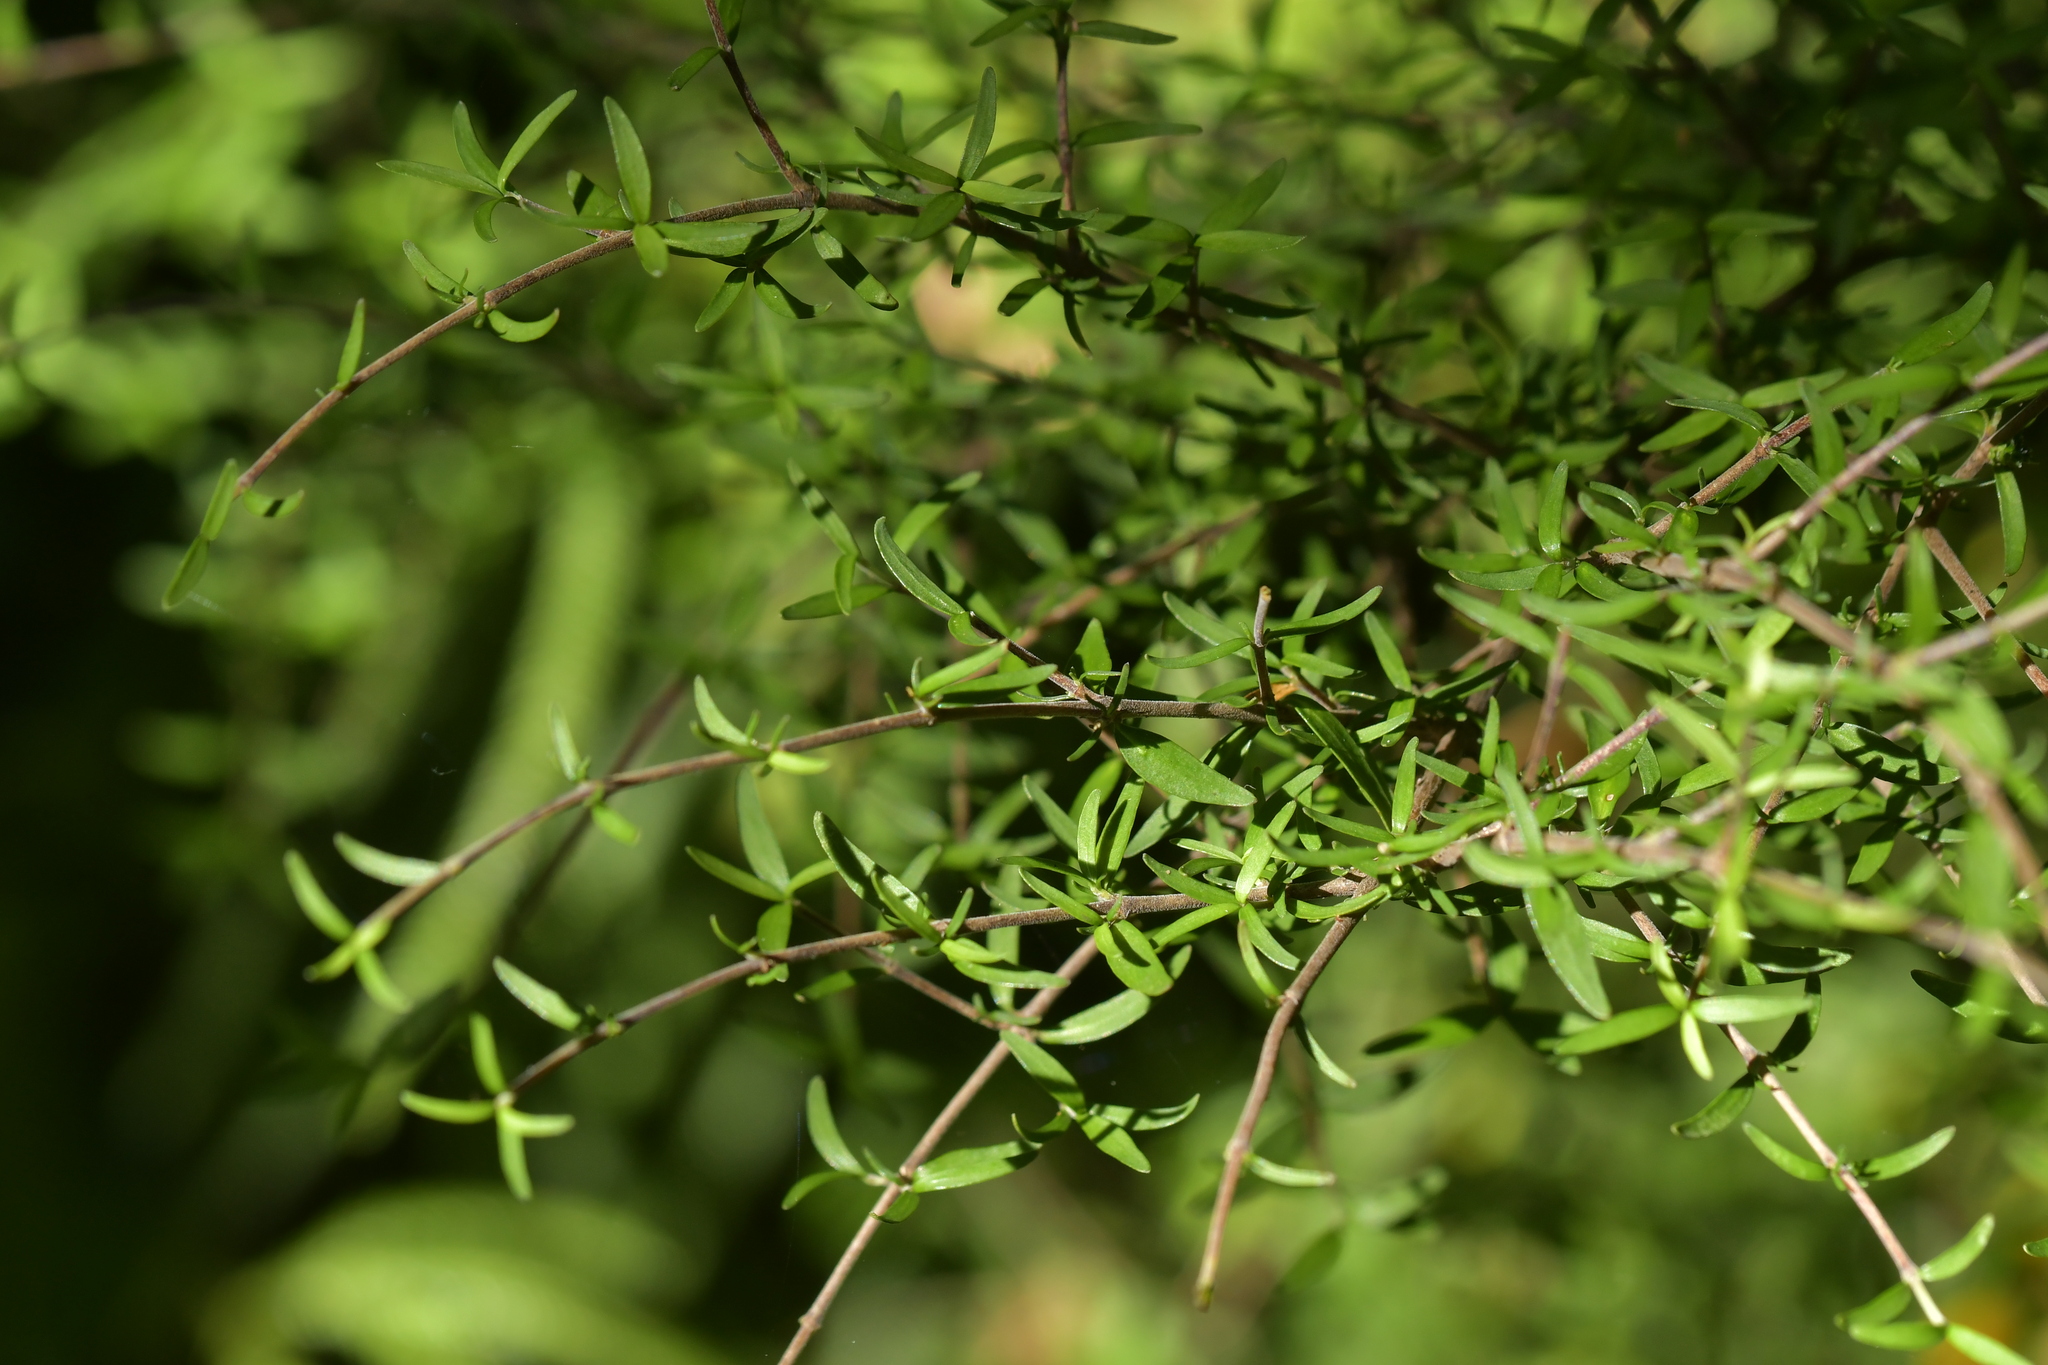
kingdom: Plantae
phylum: Tracheophyta
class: Magnoliopsida
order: Gentianales
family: Rubiaceae
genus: Coprosma
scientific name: Coprosma linariifolia
